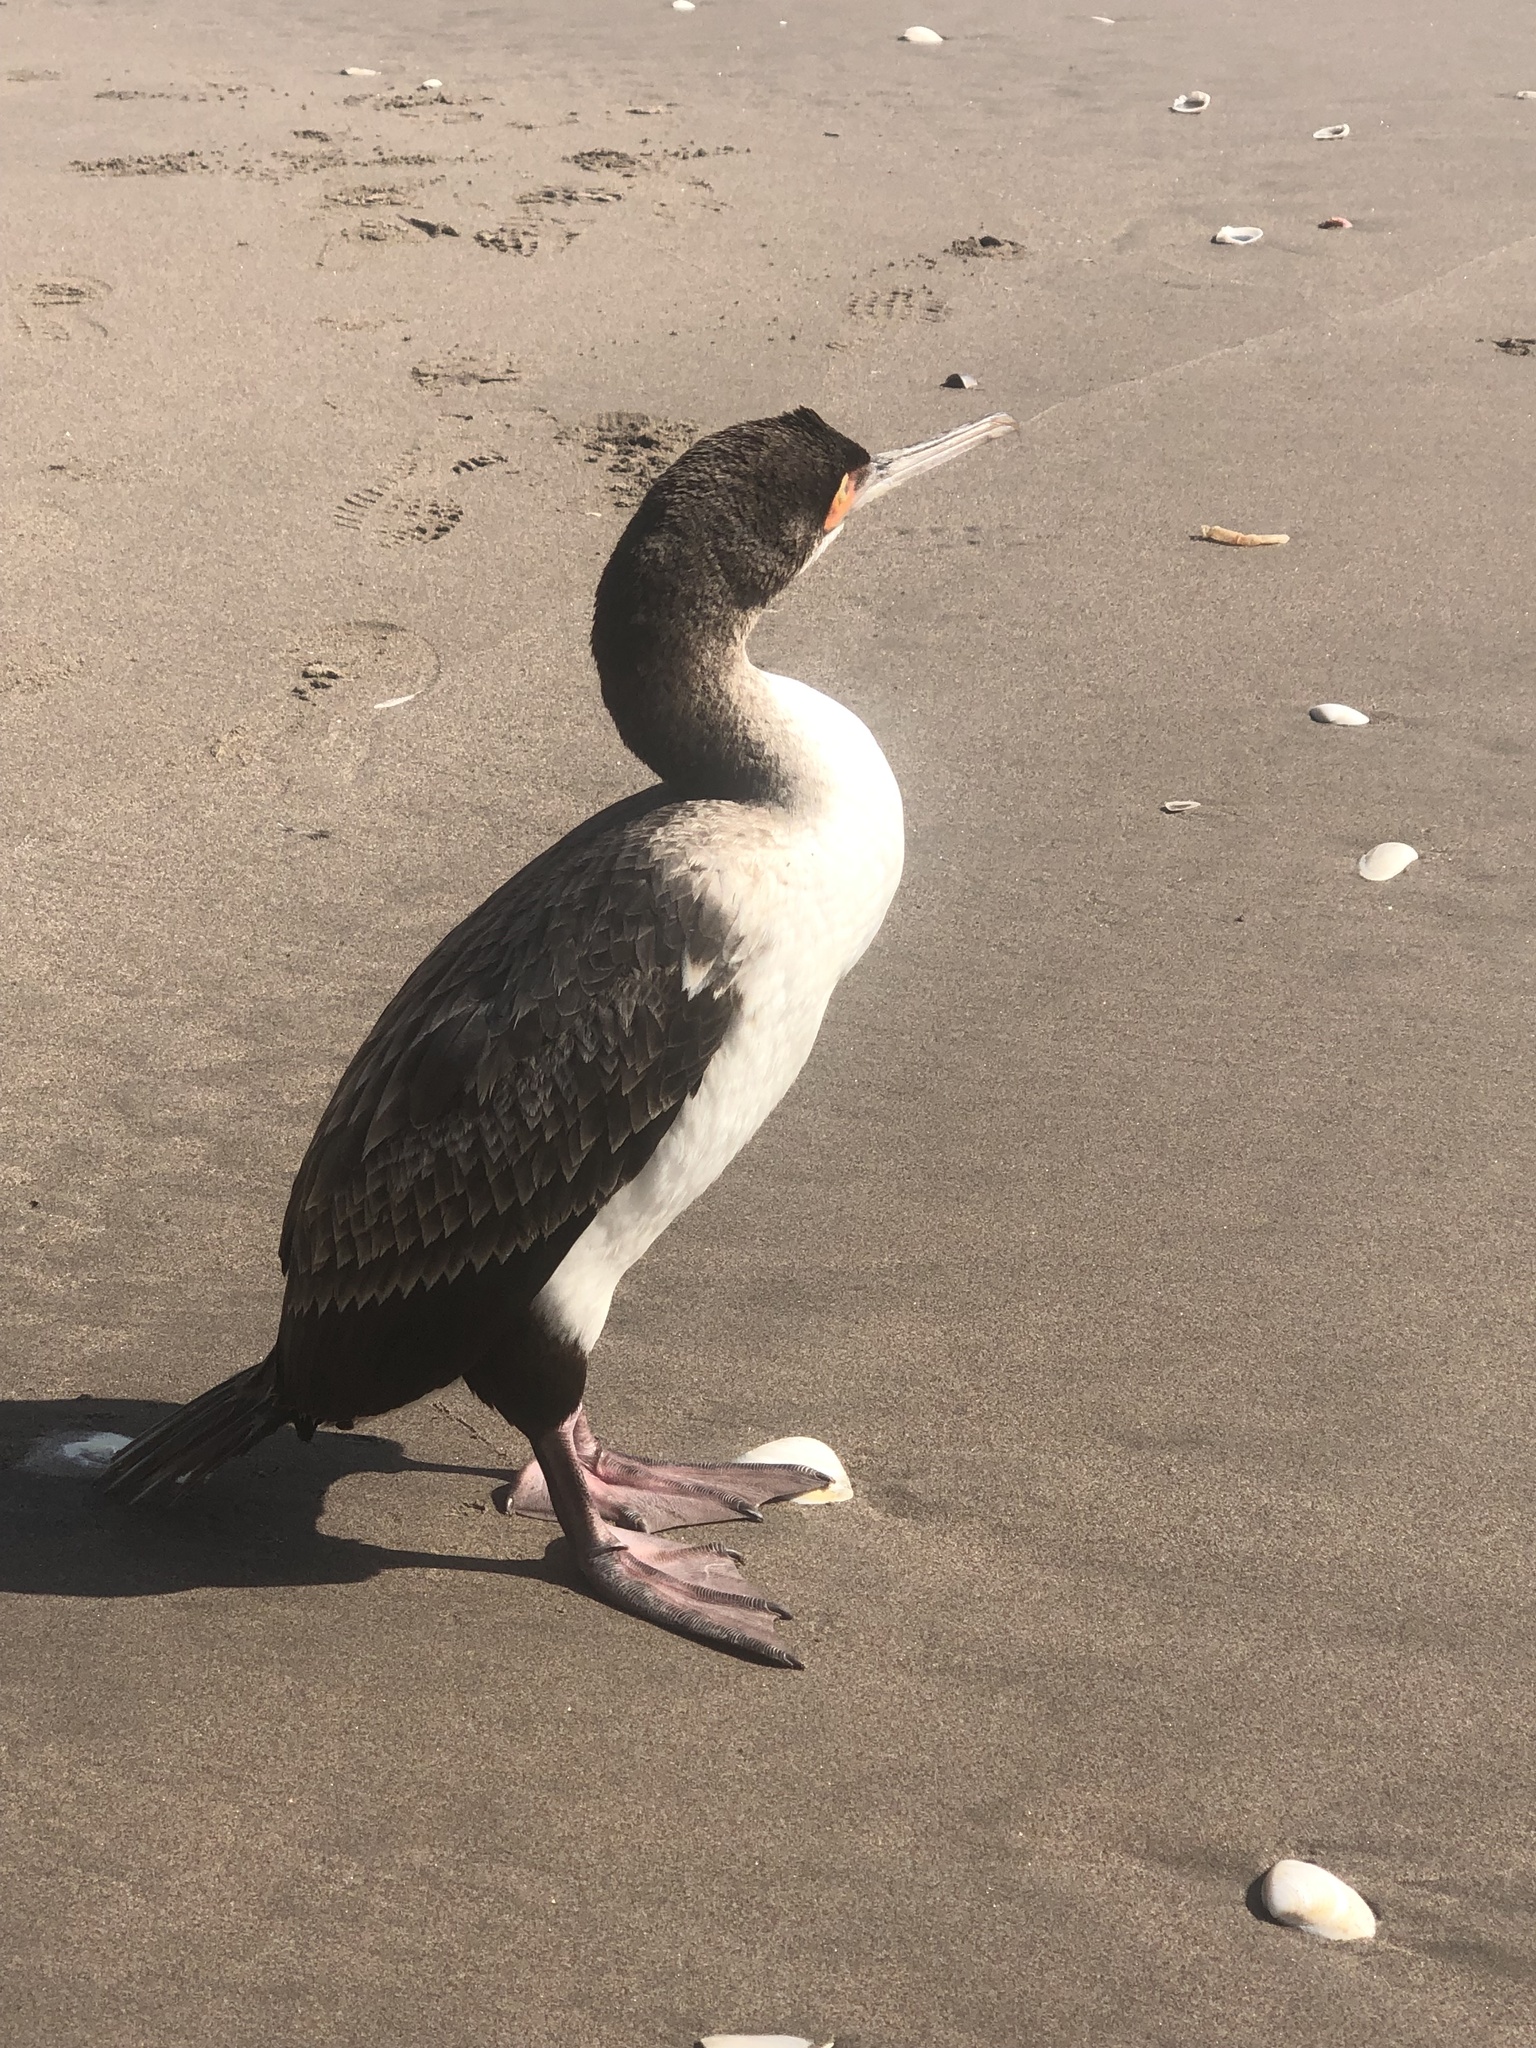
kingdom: Animalia
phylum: Chordata
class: Aves
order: Suliformes
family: Phalacrocoracidae
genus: Leucocarbo
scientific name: Leucocarbo bougainvillii
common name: Guanay cormorant
